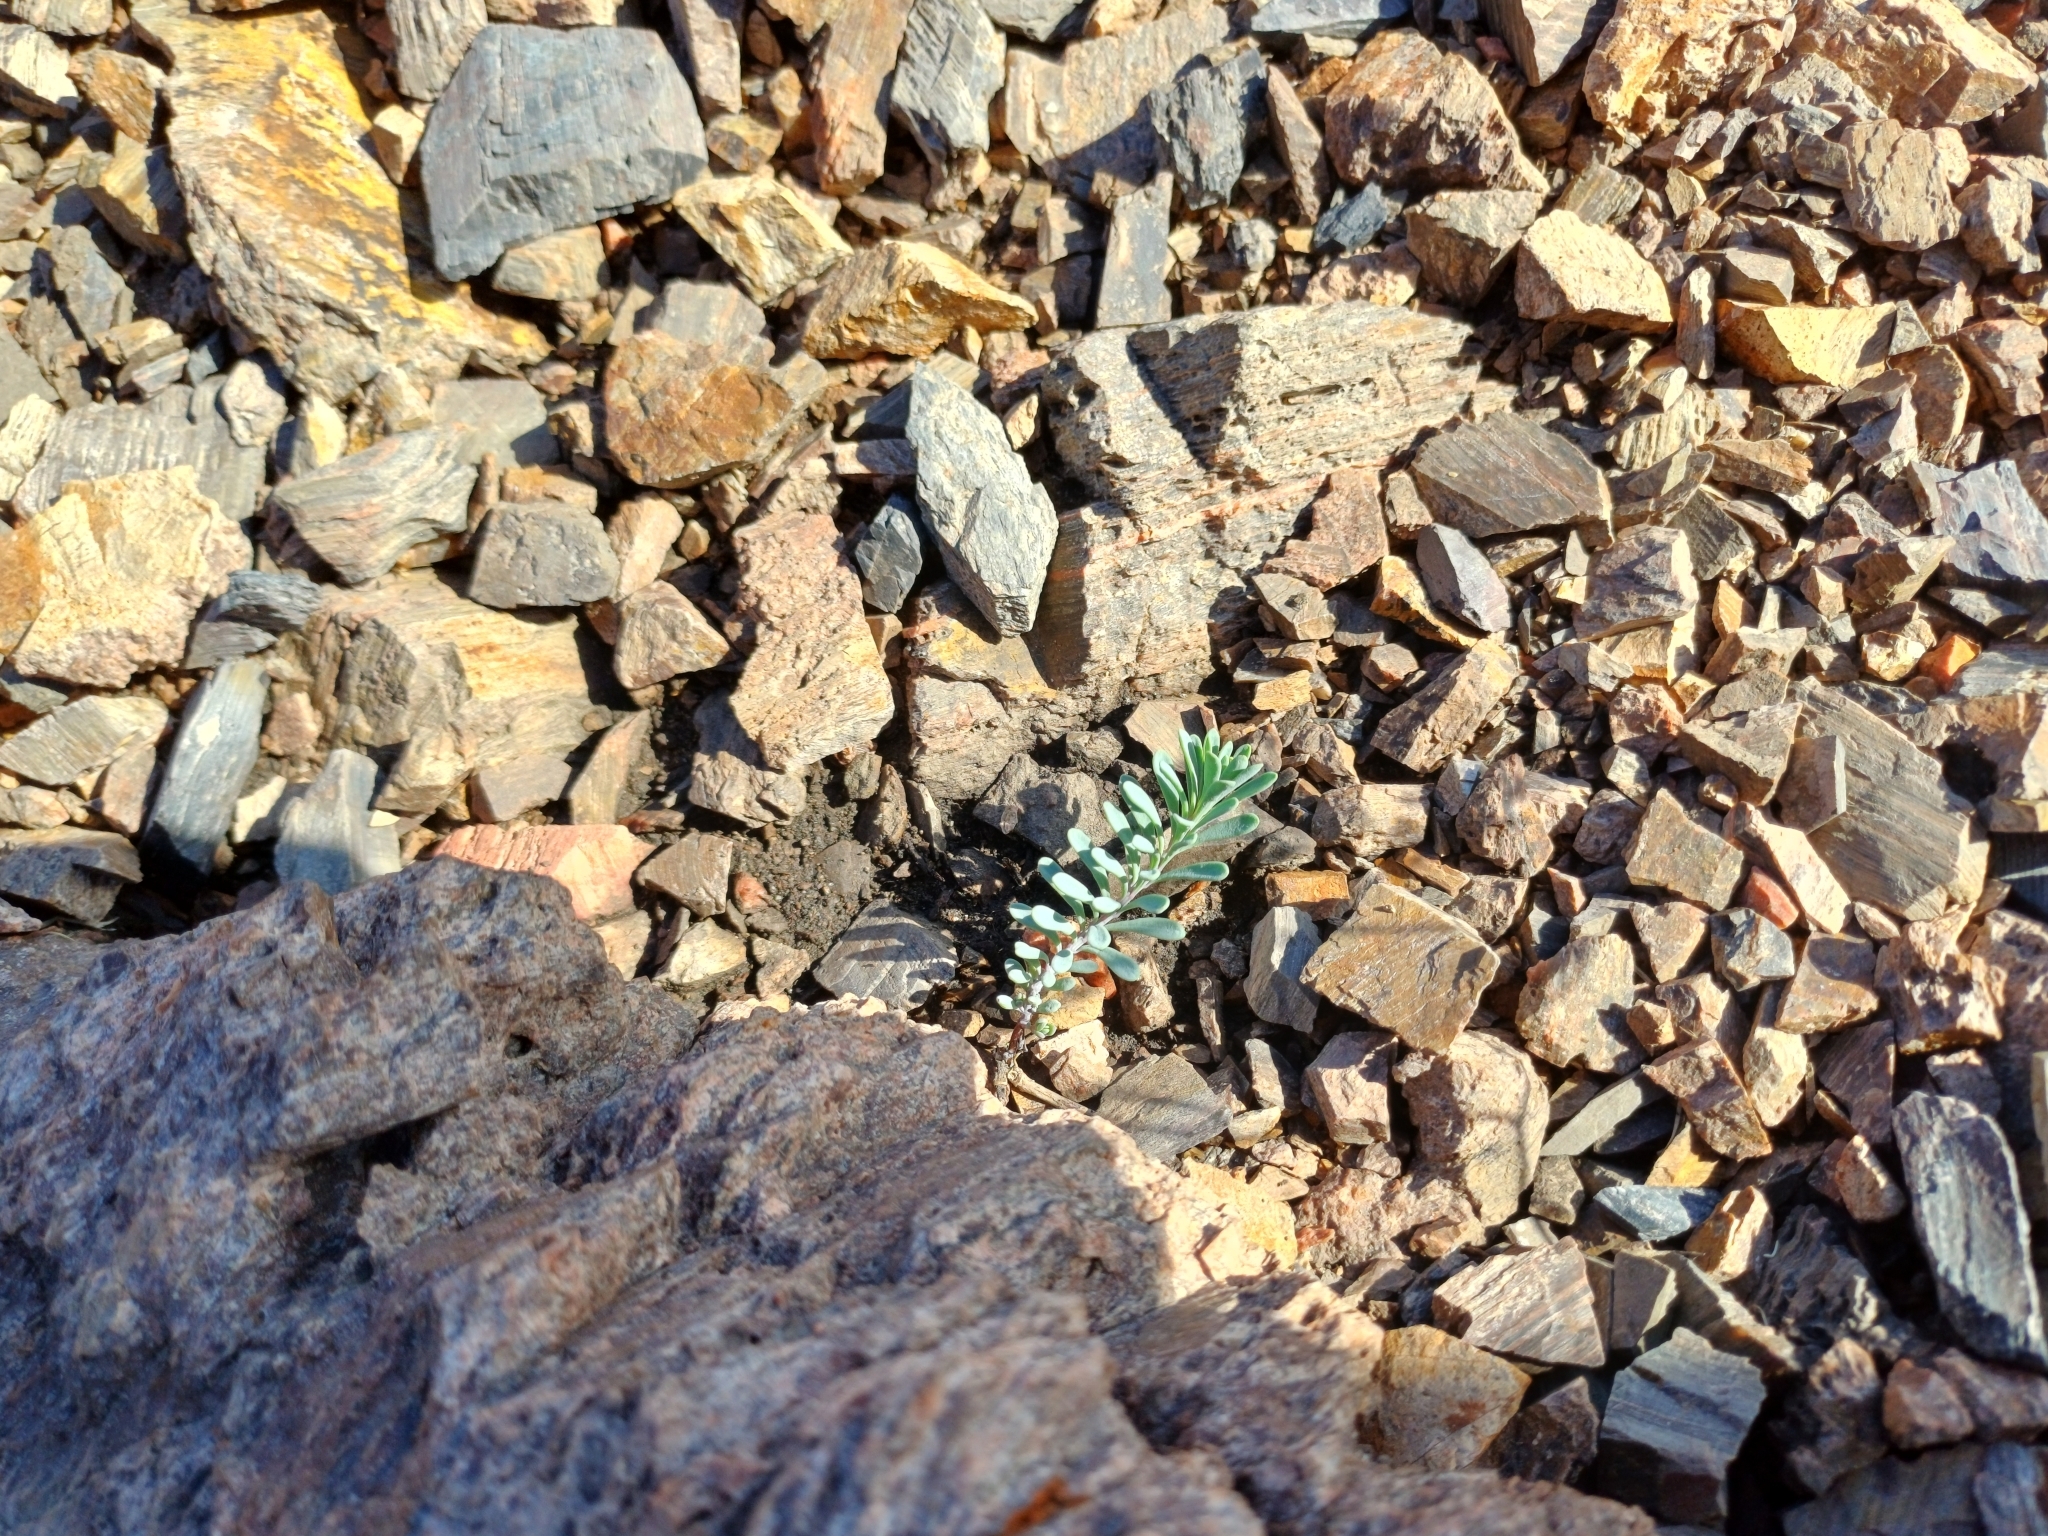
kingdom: Plantae
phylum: Tracheophyta
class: Magnoliopsida
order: Asterales
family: Asteraceae
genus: Porophyllum
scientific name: Porophyllum linifolium
